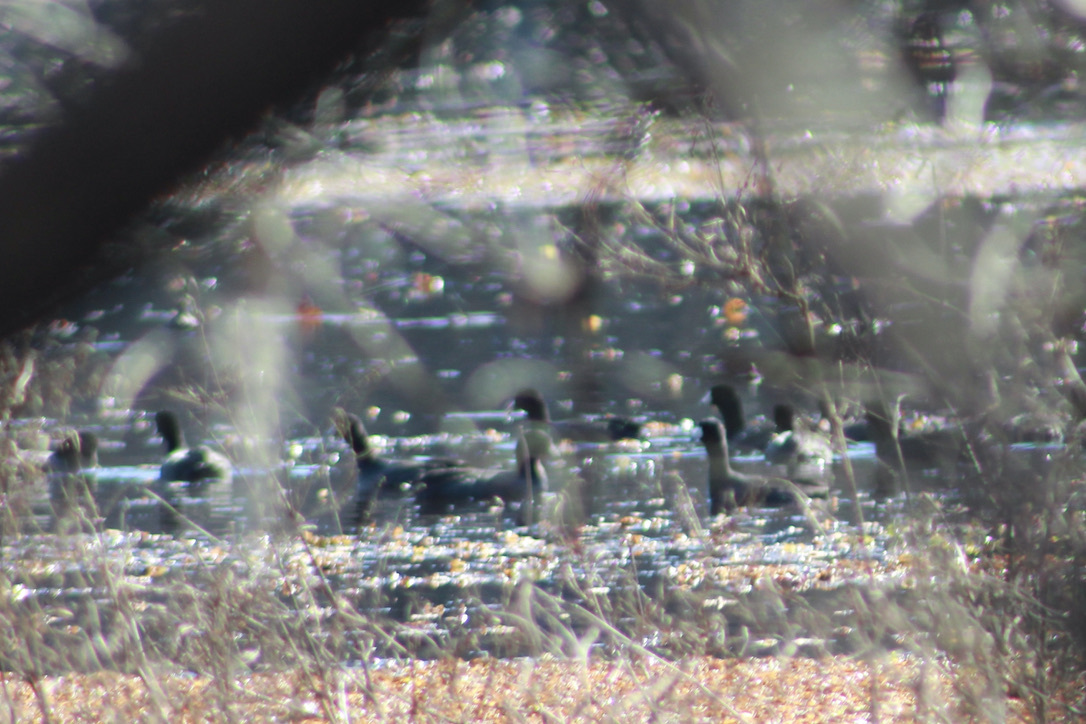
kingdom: Animalia
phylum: Chordata
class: Aves
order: Gruiformes
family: Rallidae
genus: Fulica
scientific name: Fulica americana
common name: American coot
